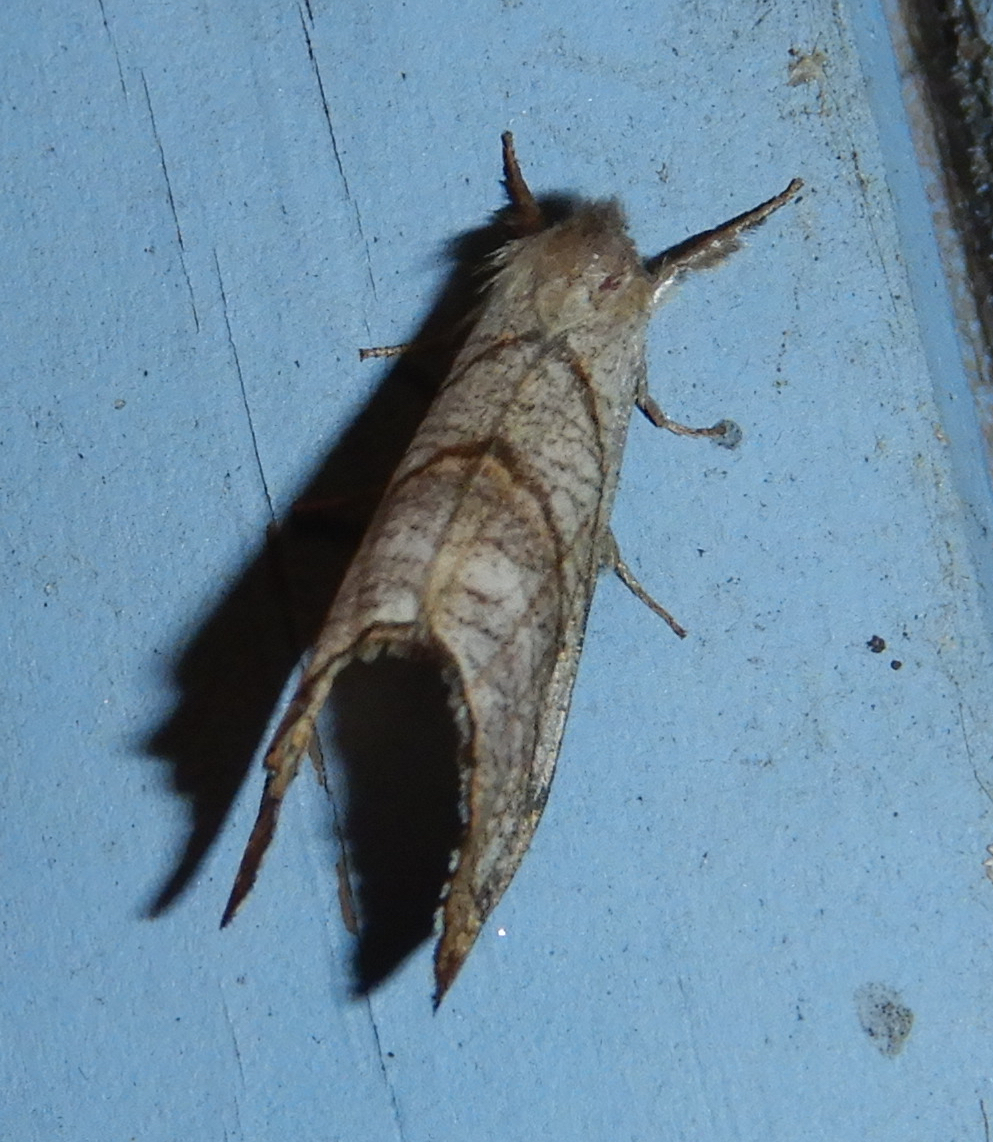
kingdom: Animalia
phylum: Arthropoda
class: Insecta
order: Lepidoptera
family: Drepanidae
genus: Falcaria
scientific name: Falcaria bilineata
